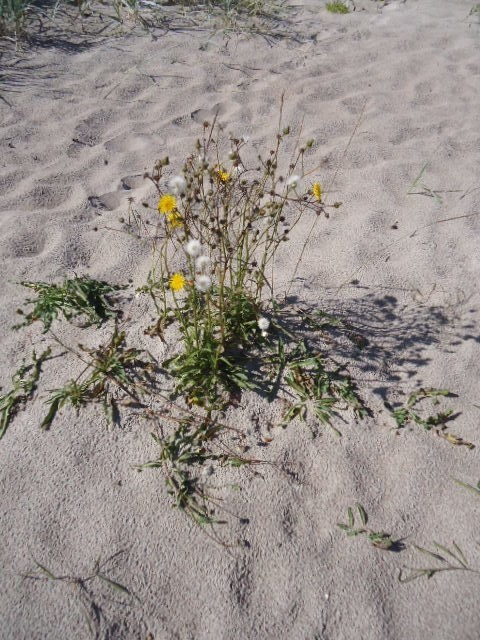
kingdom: Plantae
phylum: Tracheophyta
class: Magnoliopsida
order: Asterales
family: Asteraceae
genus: Sonchus
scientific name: Sonchus arvensis
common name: Perennial sow-thistle
